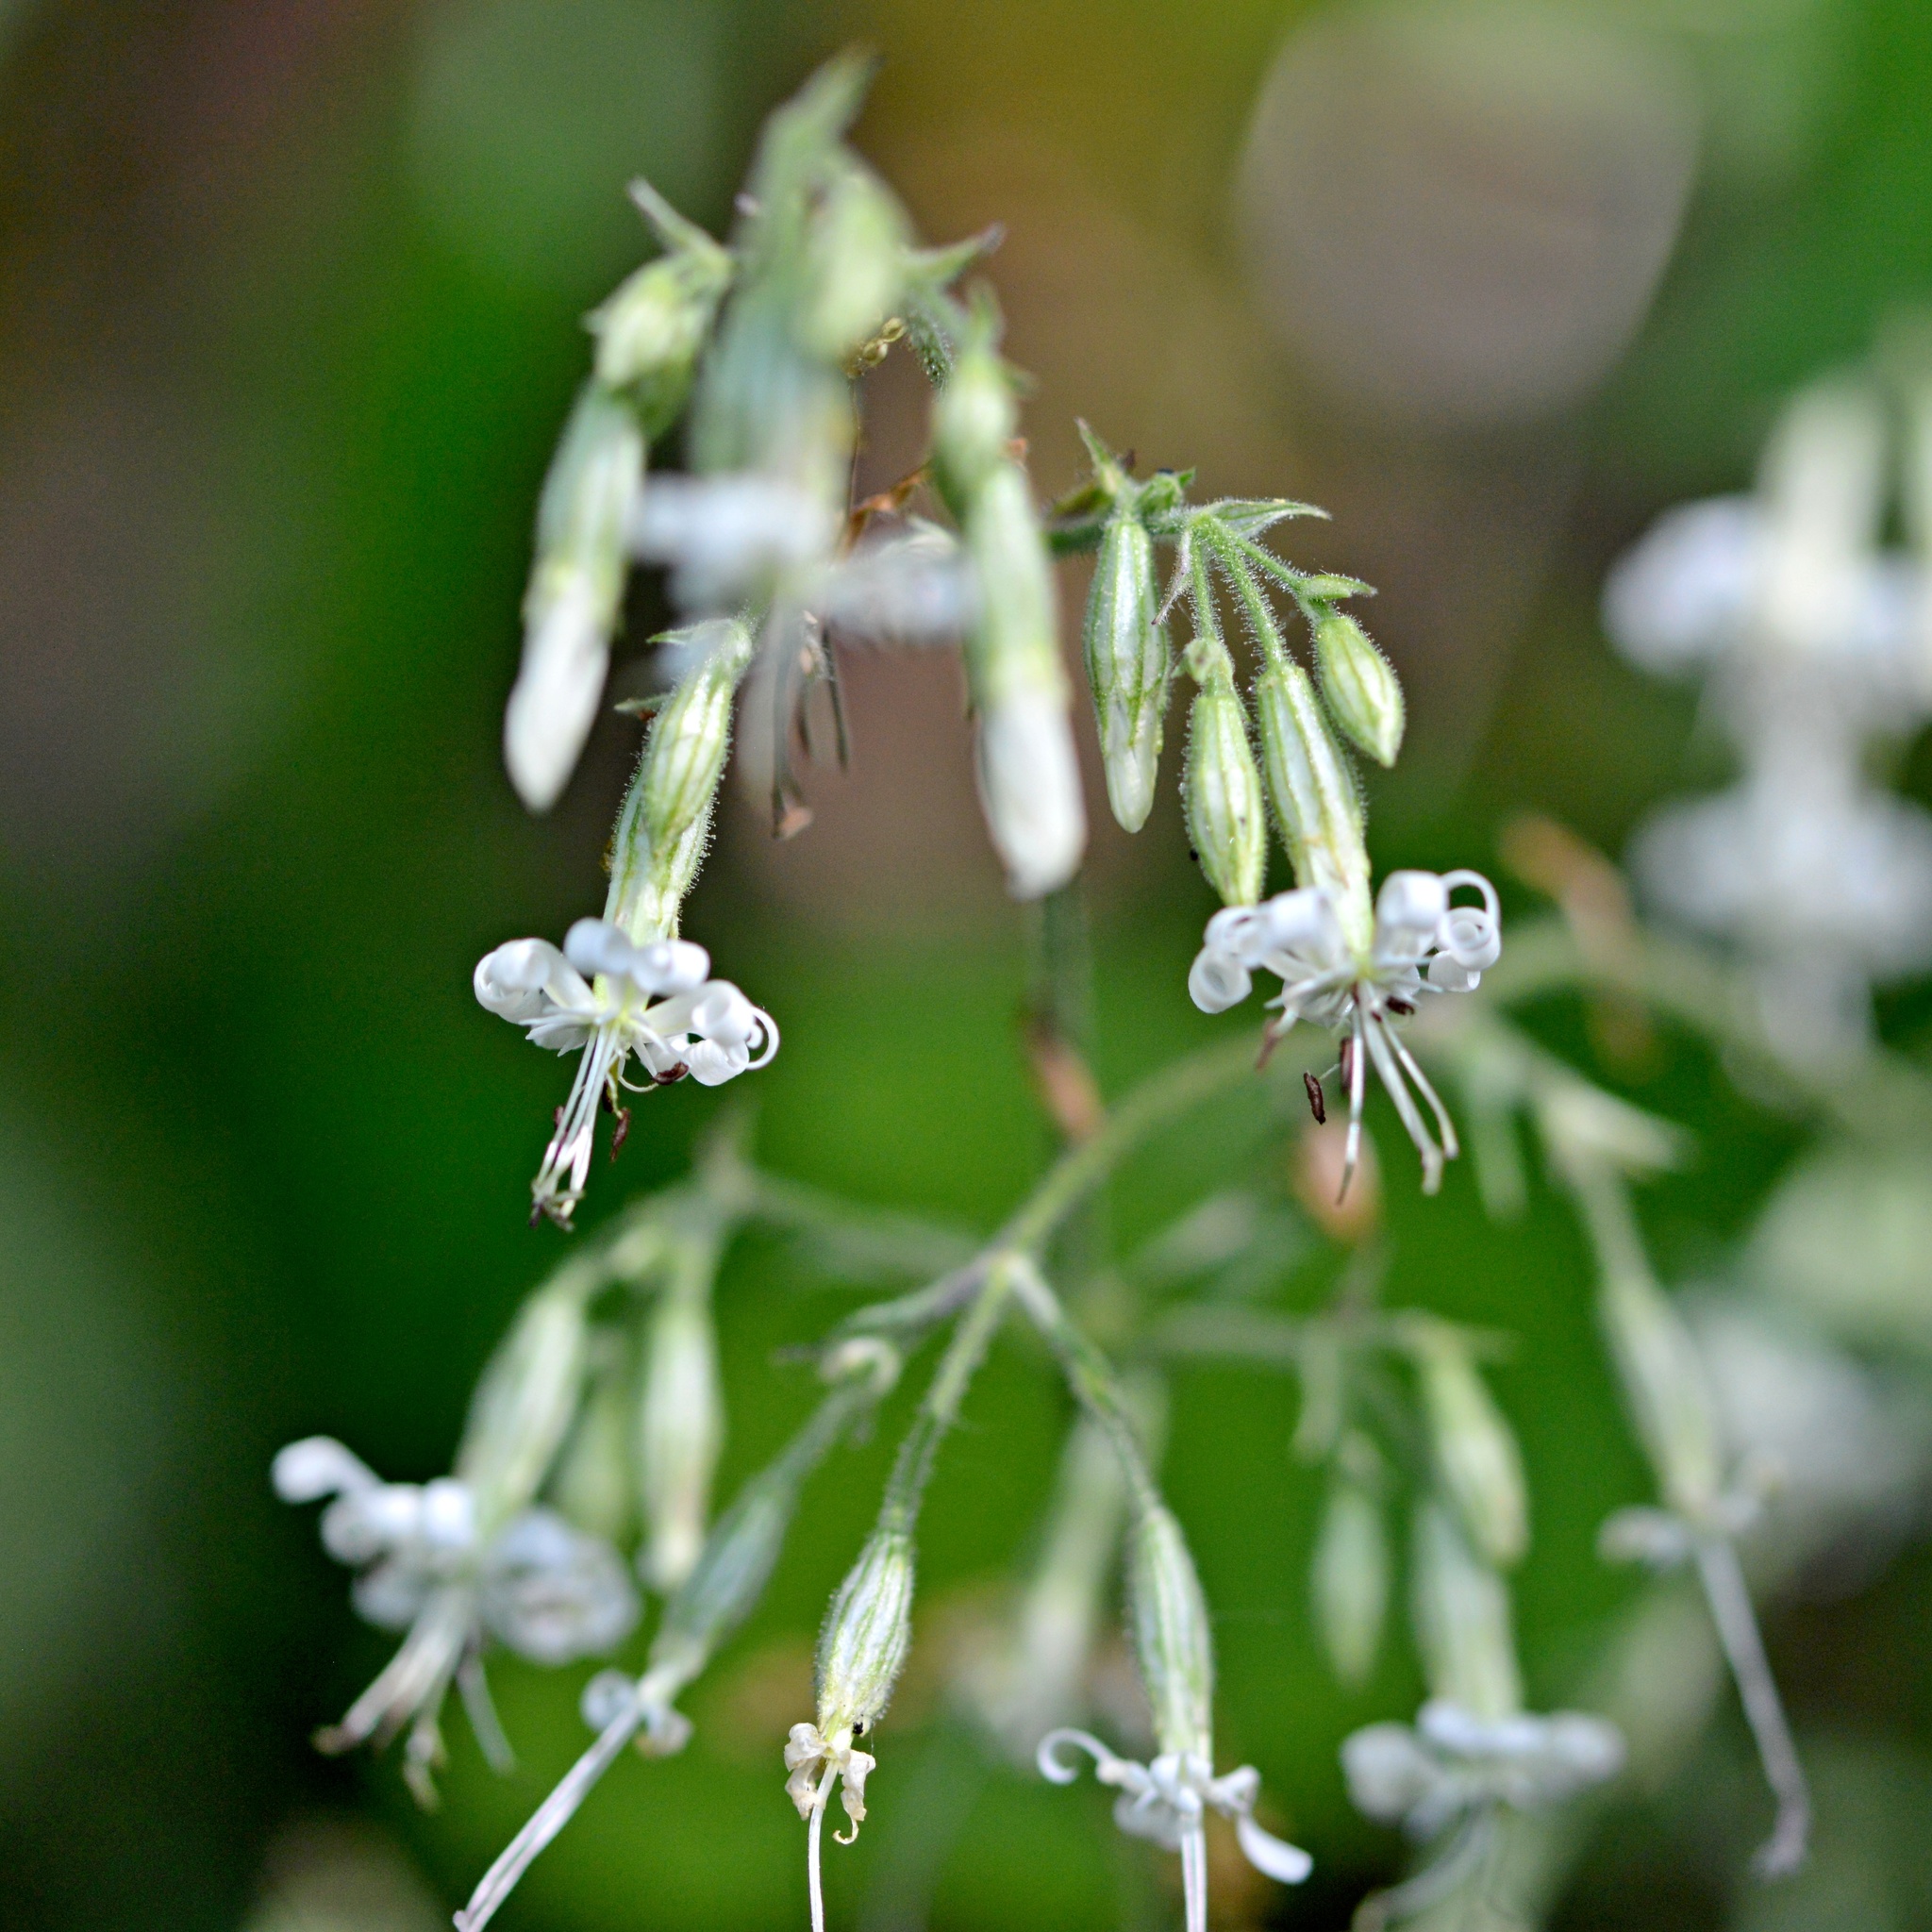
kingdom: Plantae
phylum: Tracheophyta
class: Magnoliopsida
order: Caryophyllales
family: Caryophyllaceae
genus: Silene
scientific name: Silene nutans
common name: Nottingham catchfly
